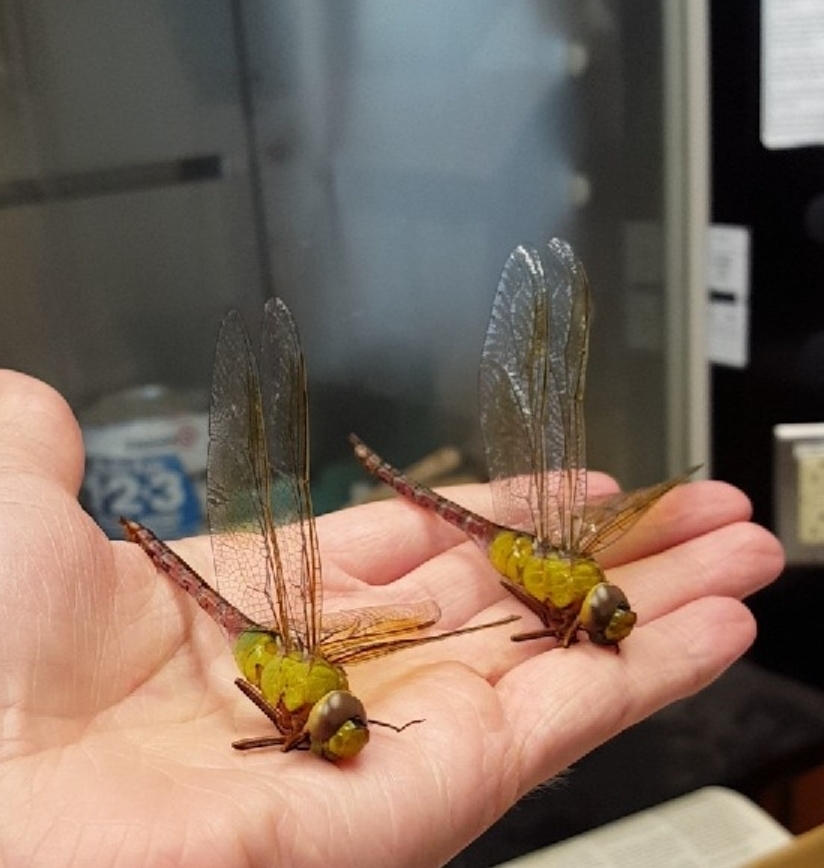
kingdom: Animalia
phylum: Arthropoda
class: Insecta
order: Odonata
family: Aeshnidae
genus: Anax
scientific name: Anax junius
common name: Common green darner
